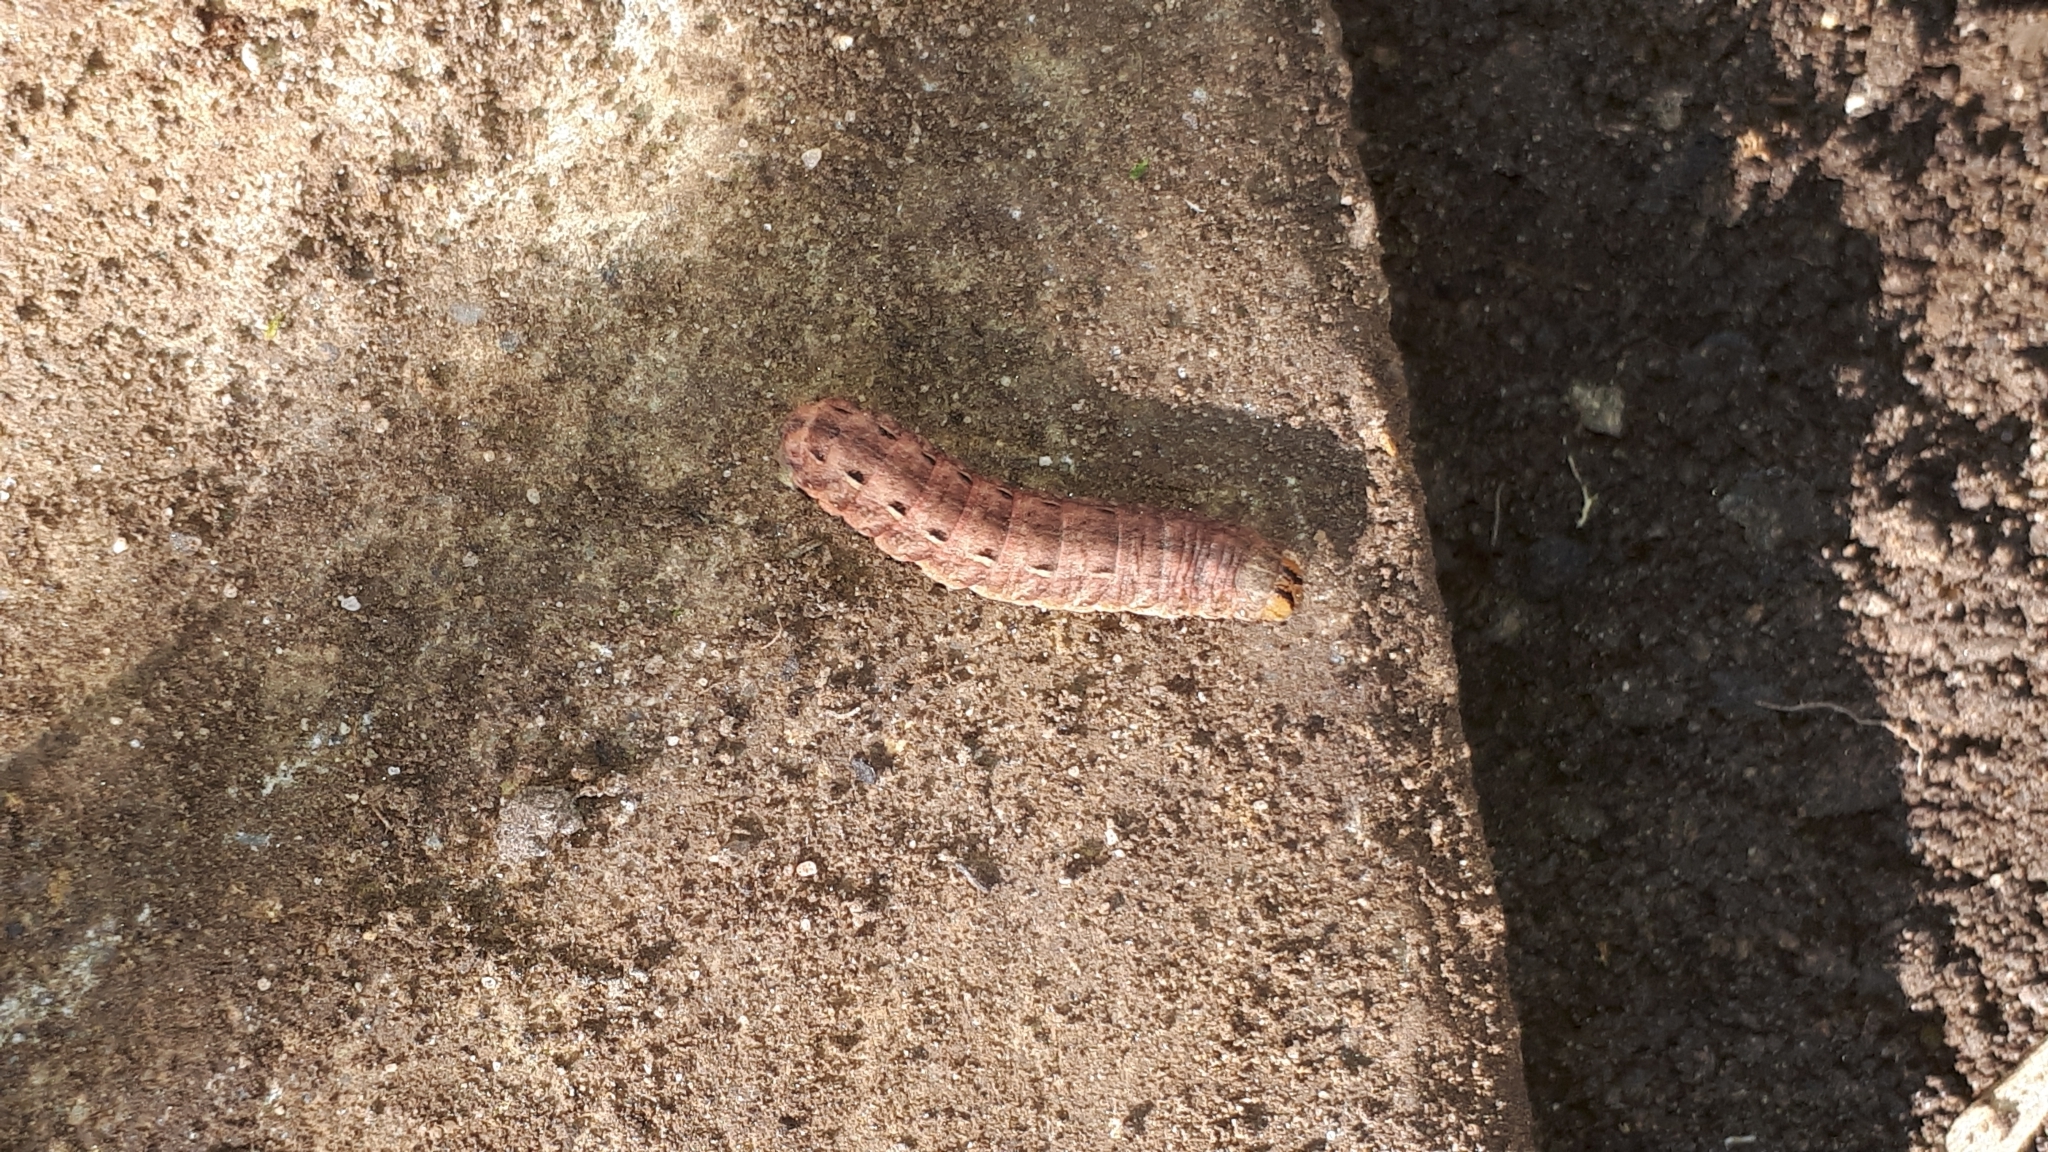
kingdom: Animalia
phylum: Arthropoda
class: Insecta
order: Lepidoptera
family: Noctuidae
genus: Noctua
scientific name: Noctua pronuba
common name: Large yellow underwing
